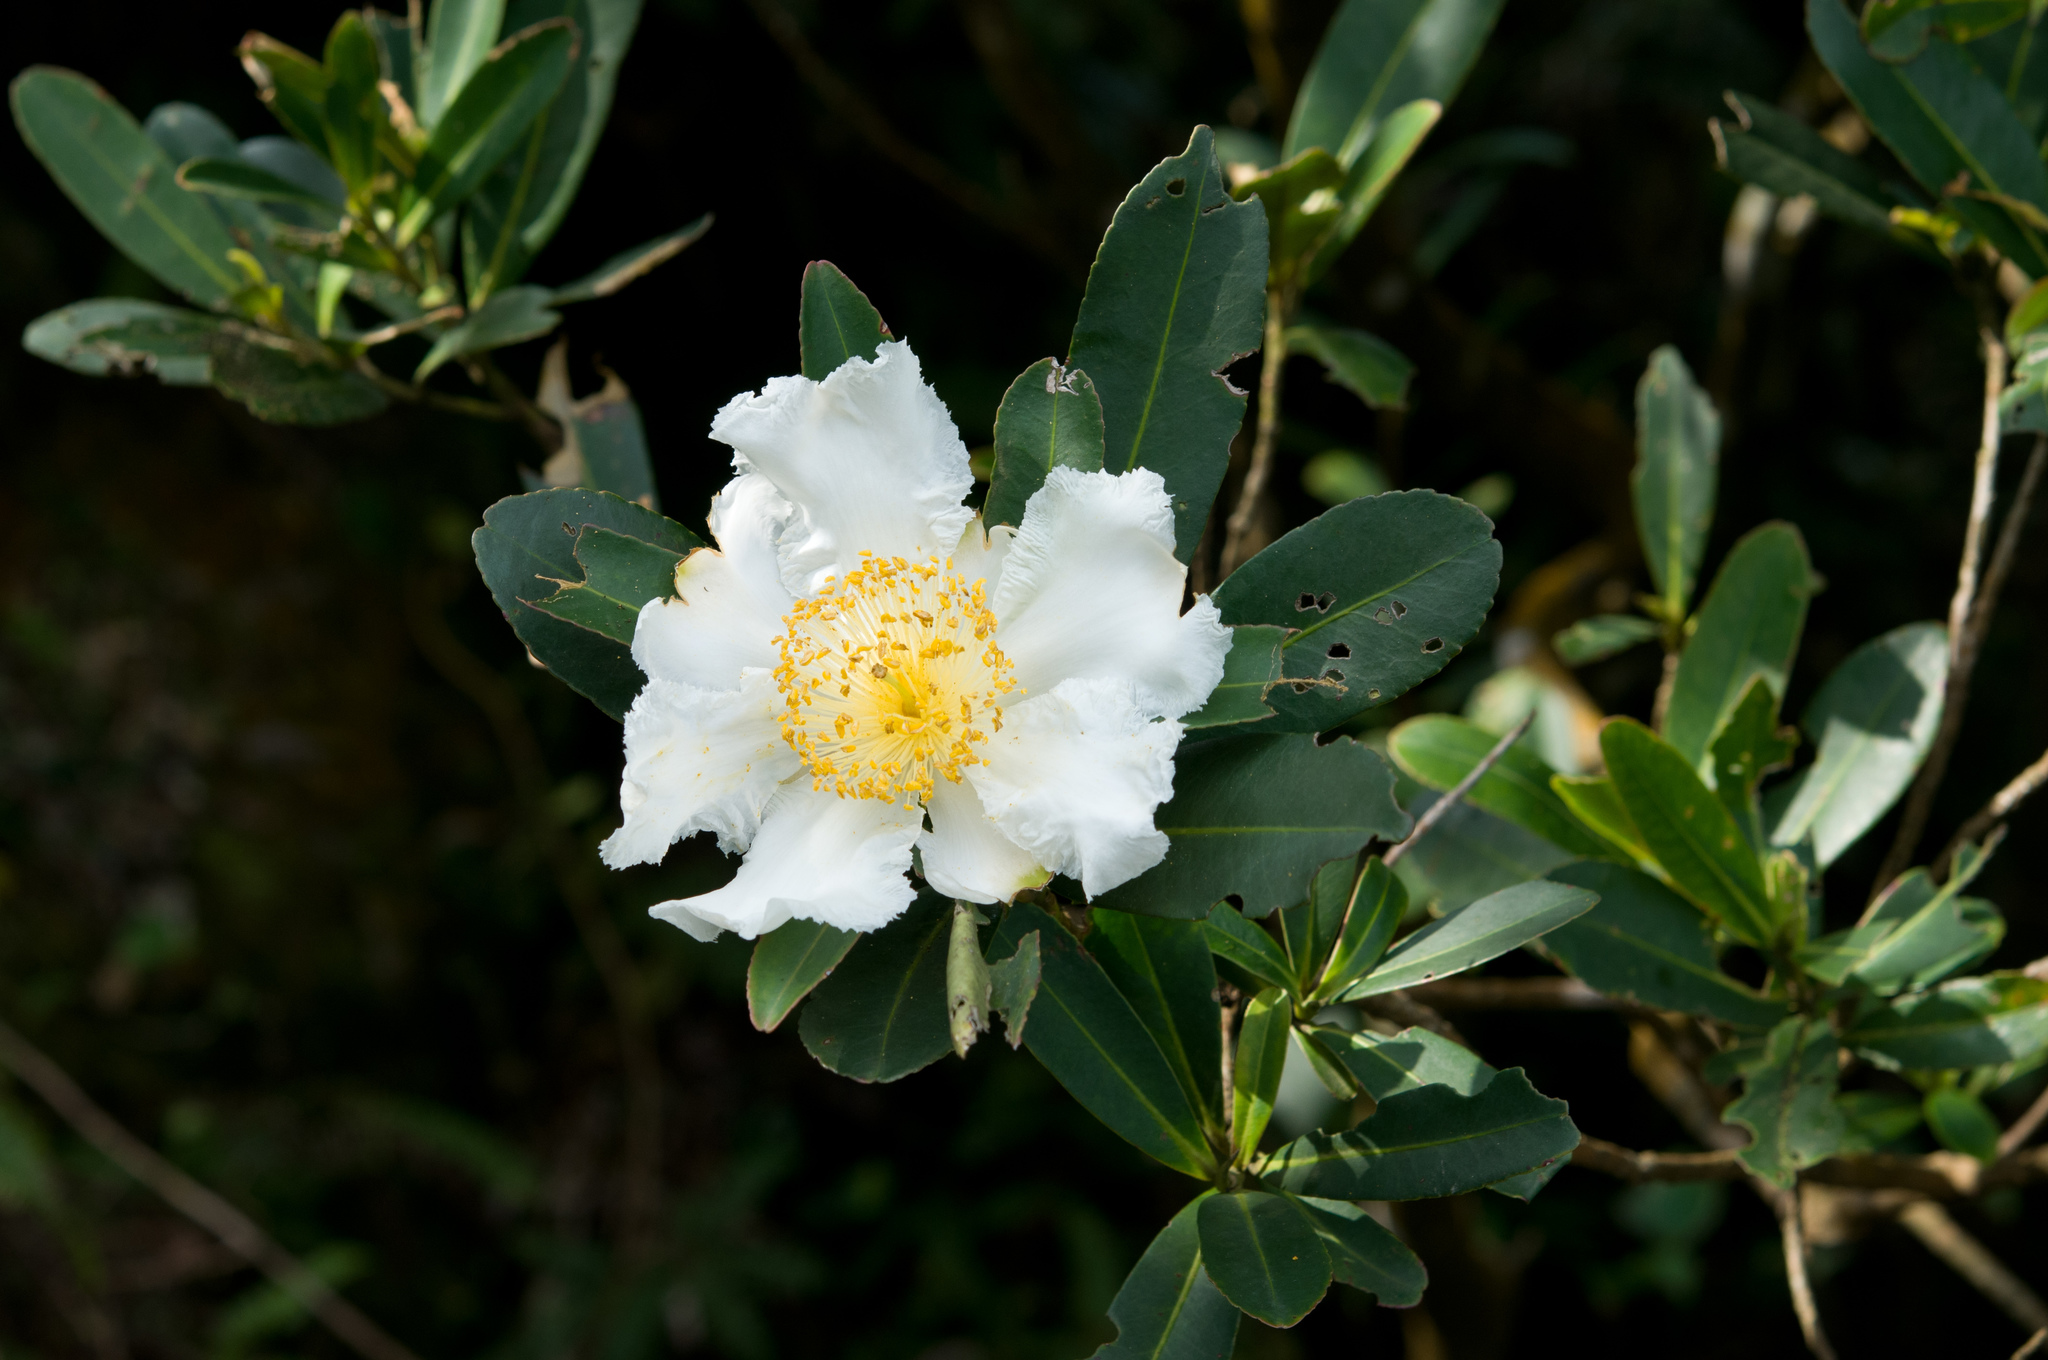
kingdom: Plantae
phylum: Tracheophyta
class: Magnoliopsida
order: Ericales
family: Theaceae
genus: Polyspora
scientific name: Polyspora axillaris
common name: Fried egg tree
